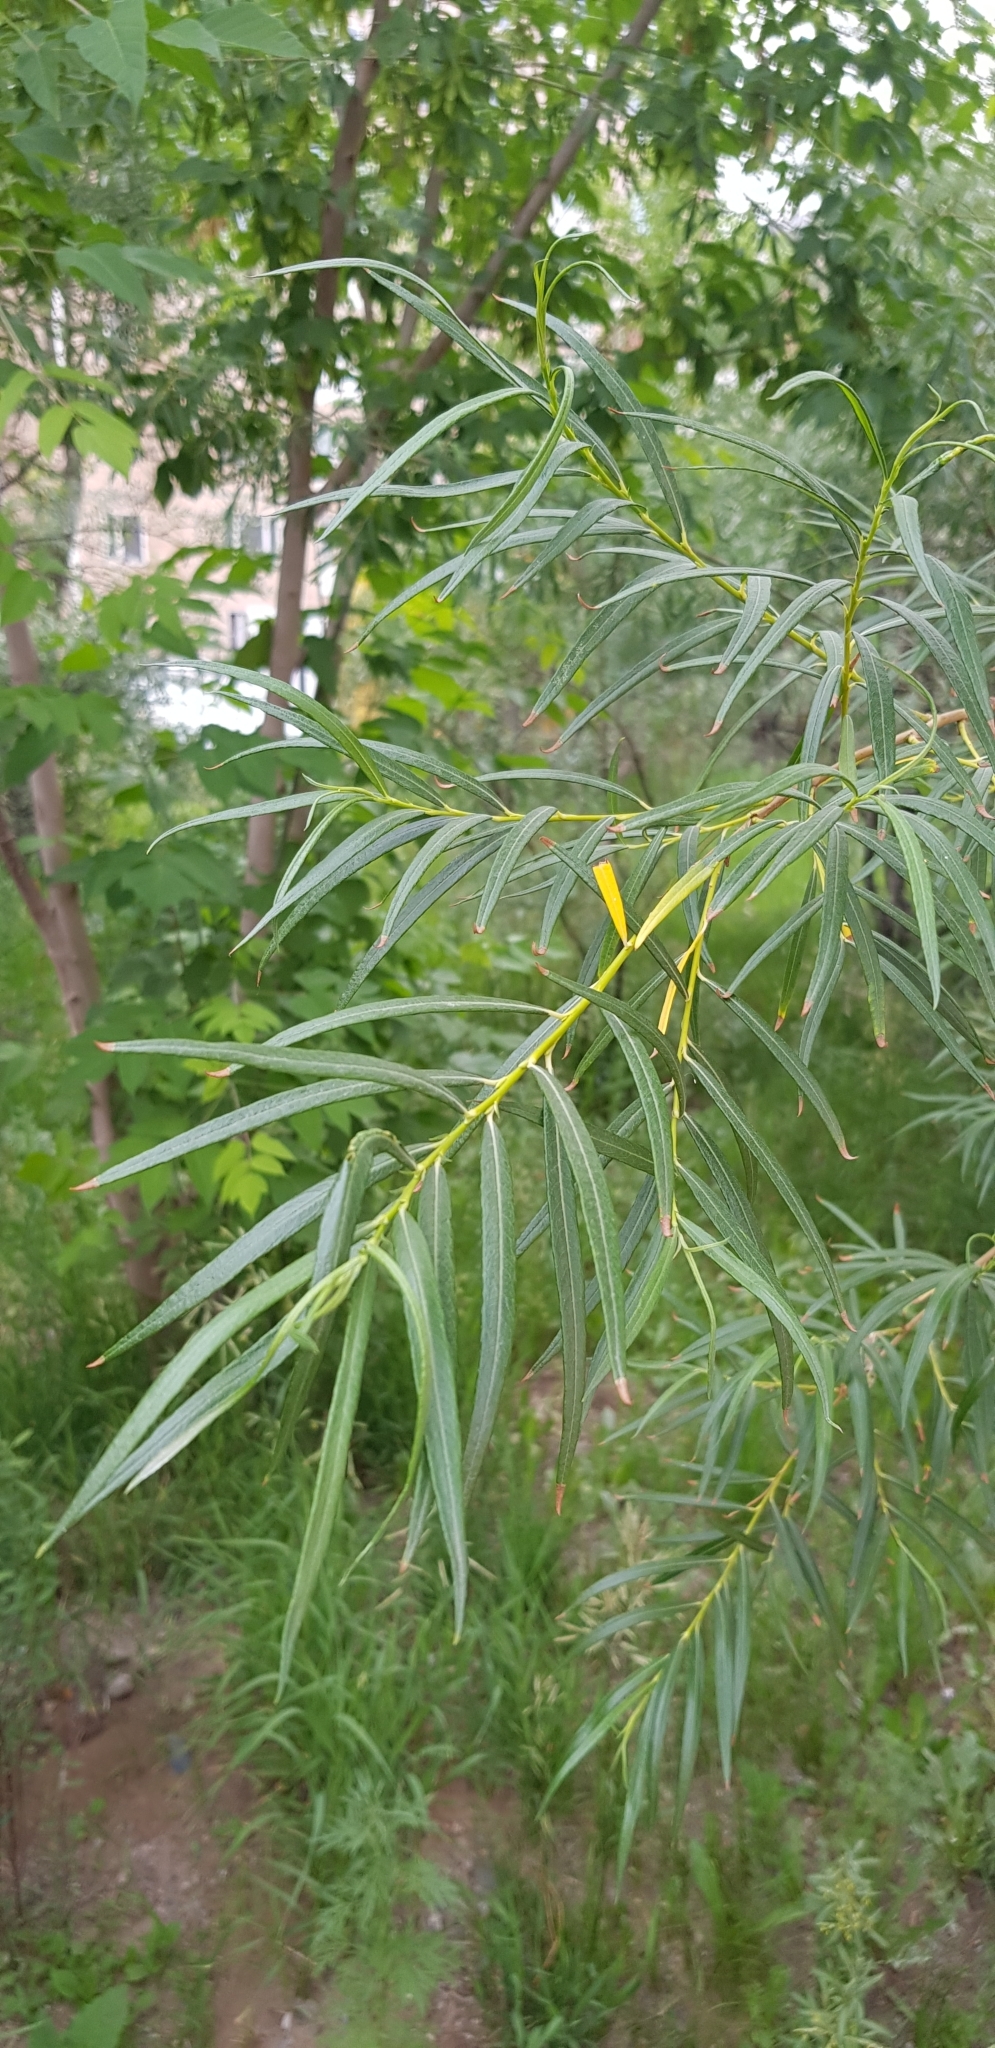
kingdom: Plantae
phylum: Tracheophyta
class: Magnoliopsida
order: Malpighiales
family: Salicaceae
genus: Salix
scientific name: Salix viminalis
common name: Osier
